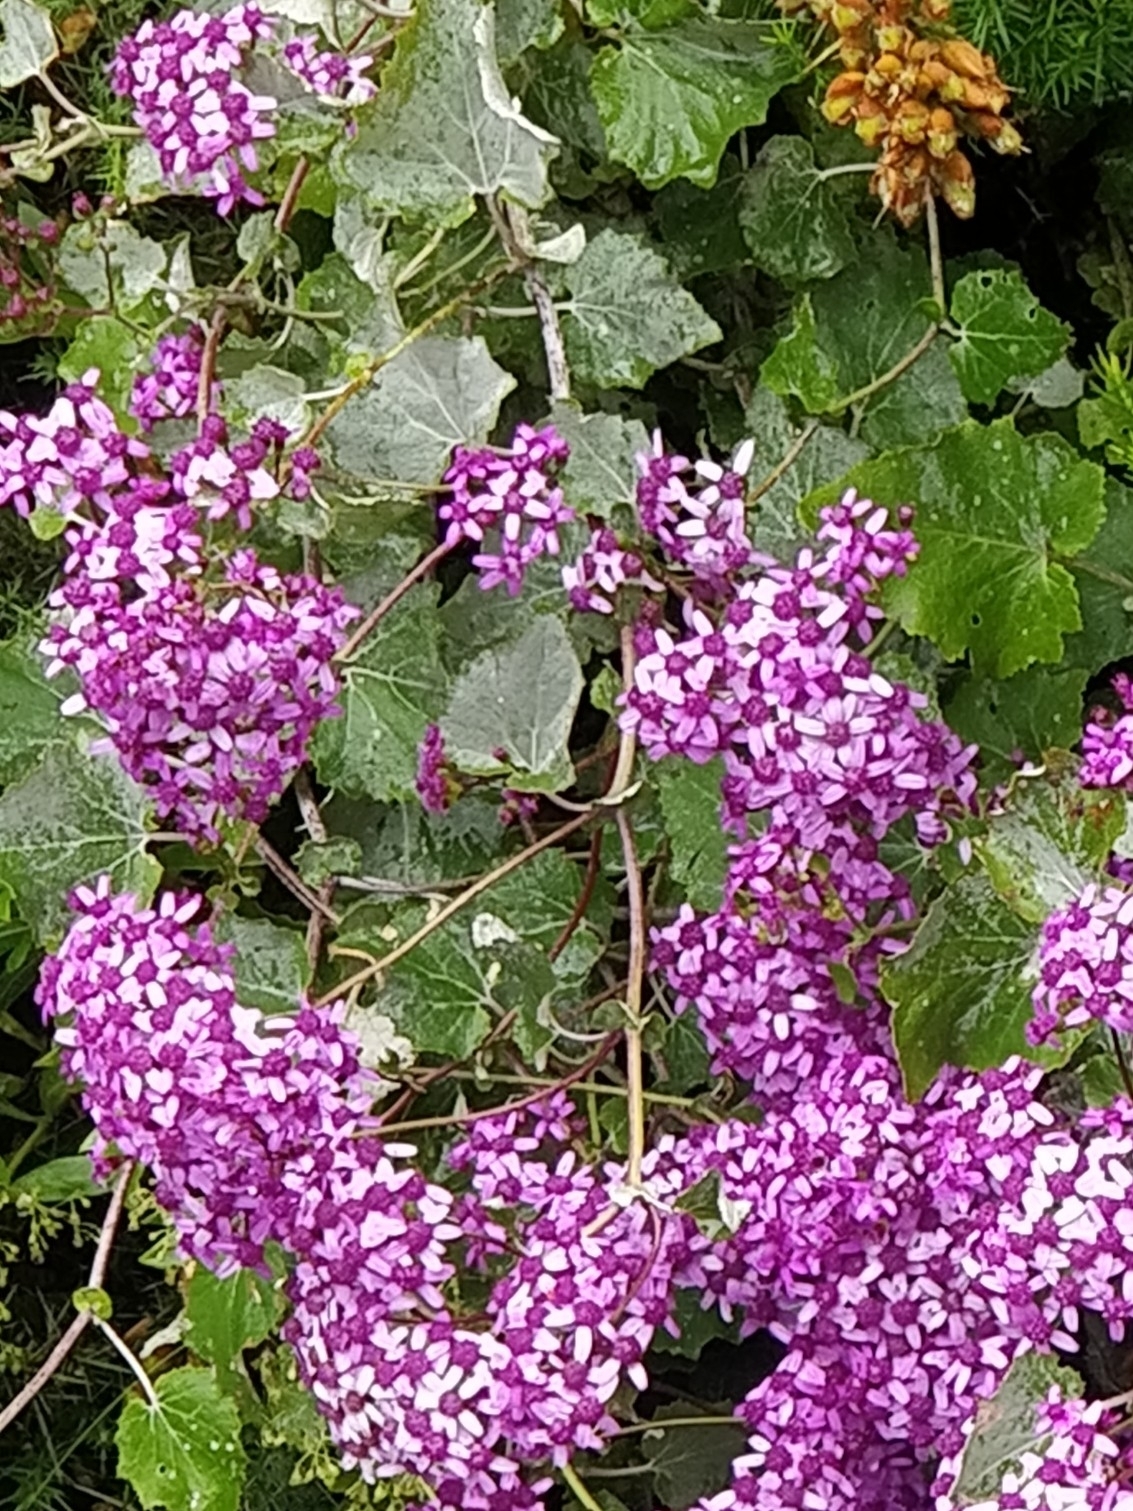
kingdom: Plantae
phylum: Tracheophyta
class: Magnoliopsida
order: Asterales
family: Asteraceae
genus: Pericallis
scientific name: Pericallis aurita
